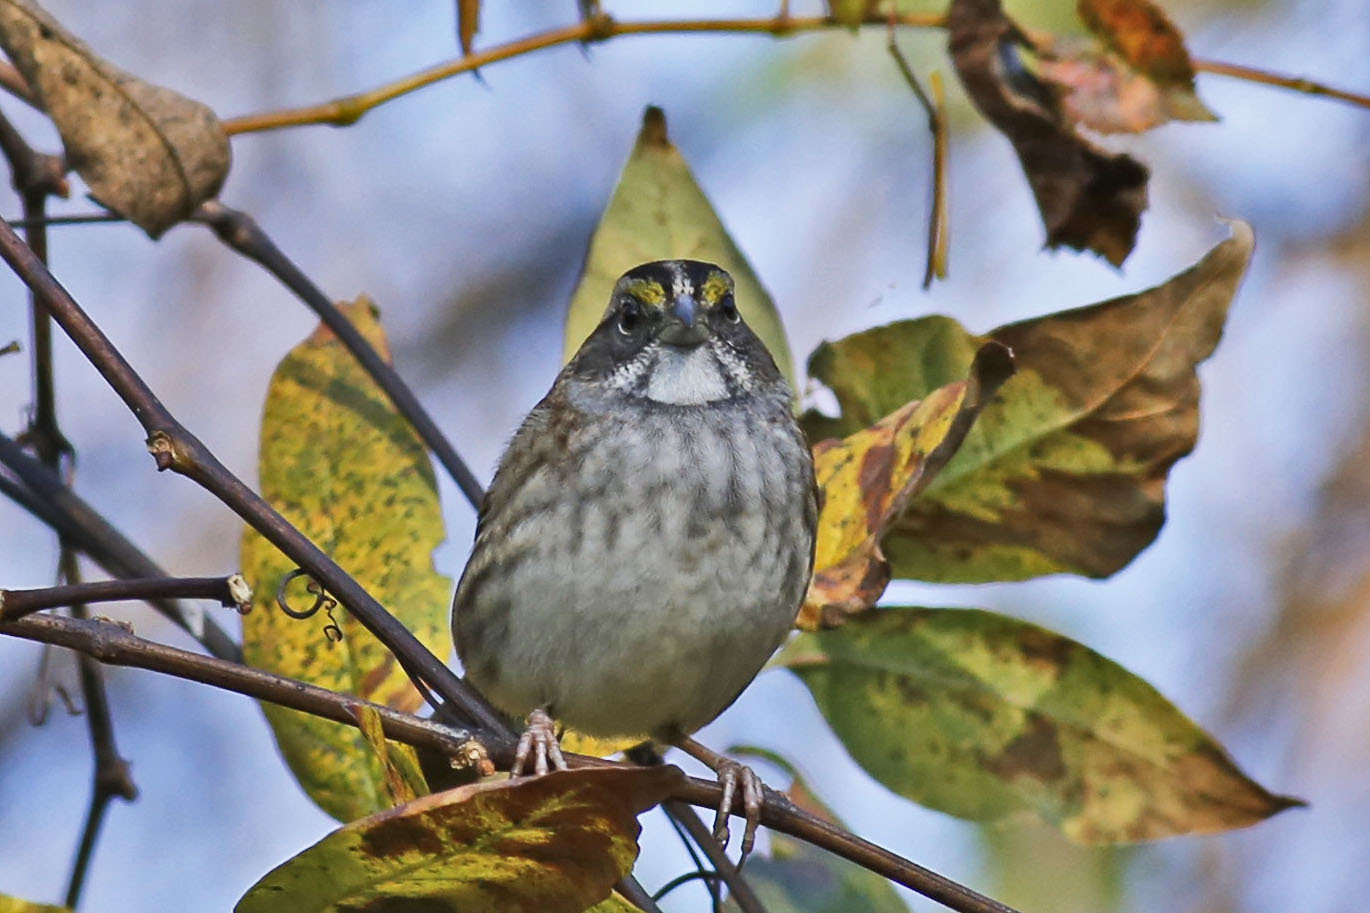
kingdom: Animalia
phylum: Chordata
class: Aves
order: Passeriformes
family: Passerellidae
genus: Zonotrichia
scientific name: Zonotrichia albicollis
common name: White-throated sparrow
